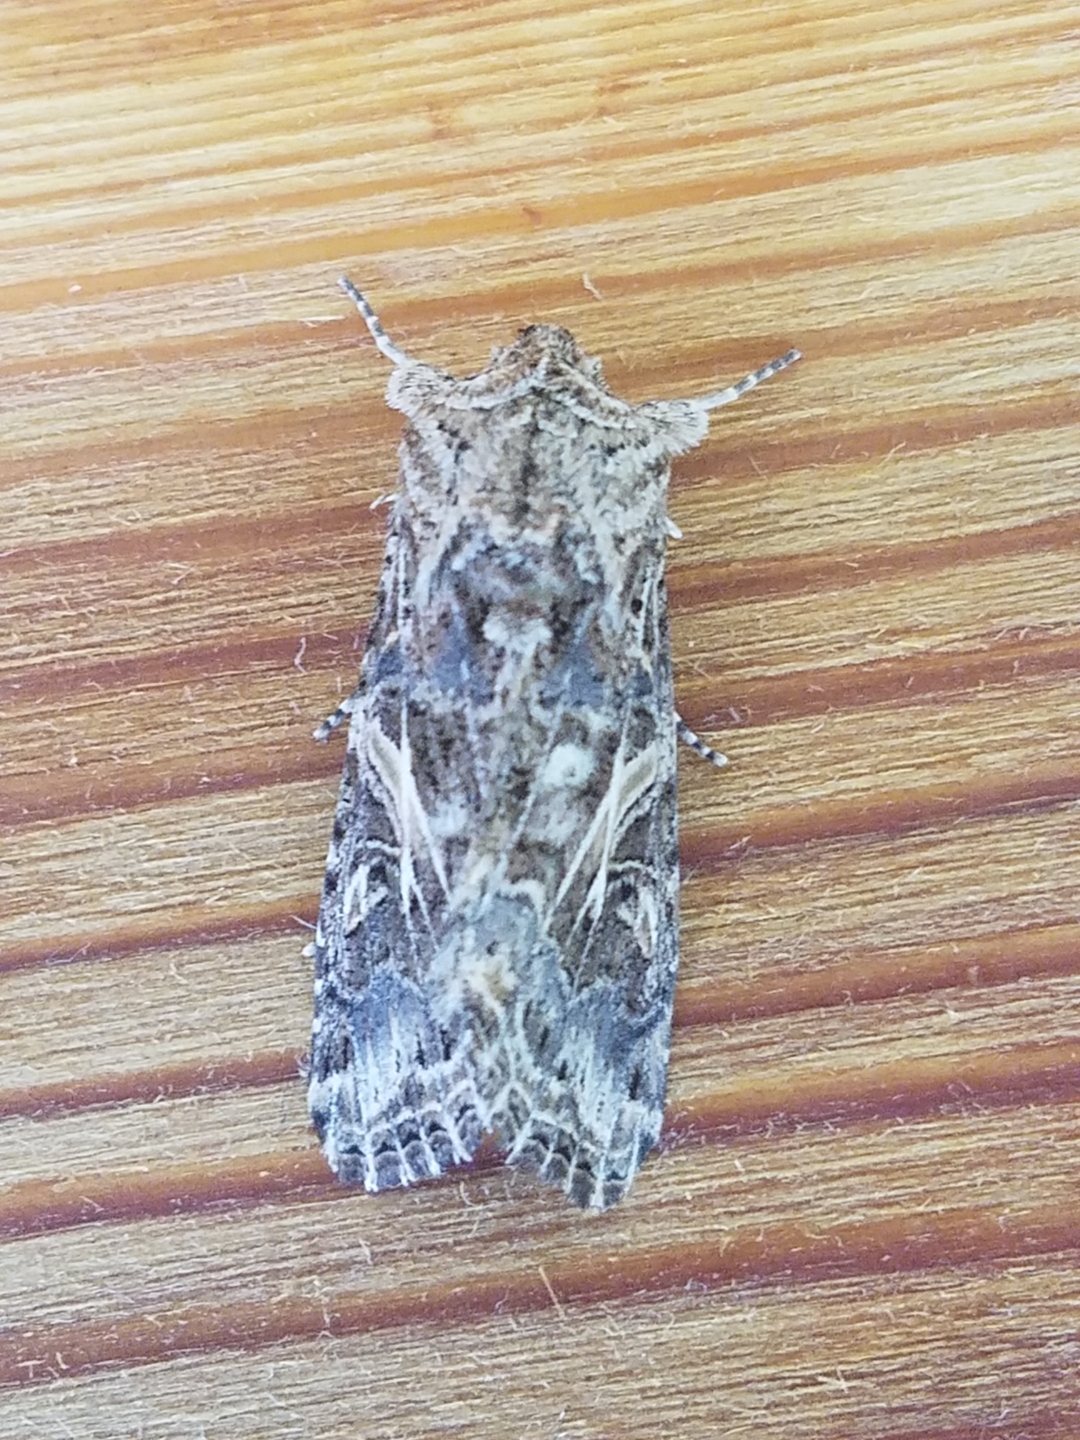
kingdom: Animalia
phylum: Arthropoda
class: Insecta
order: Lepidoptera
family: Noctuidae
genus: Spodoptera
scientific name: Spodoptera praefica
